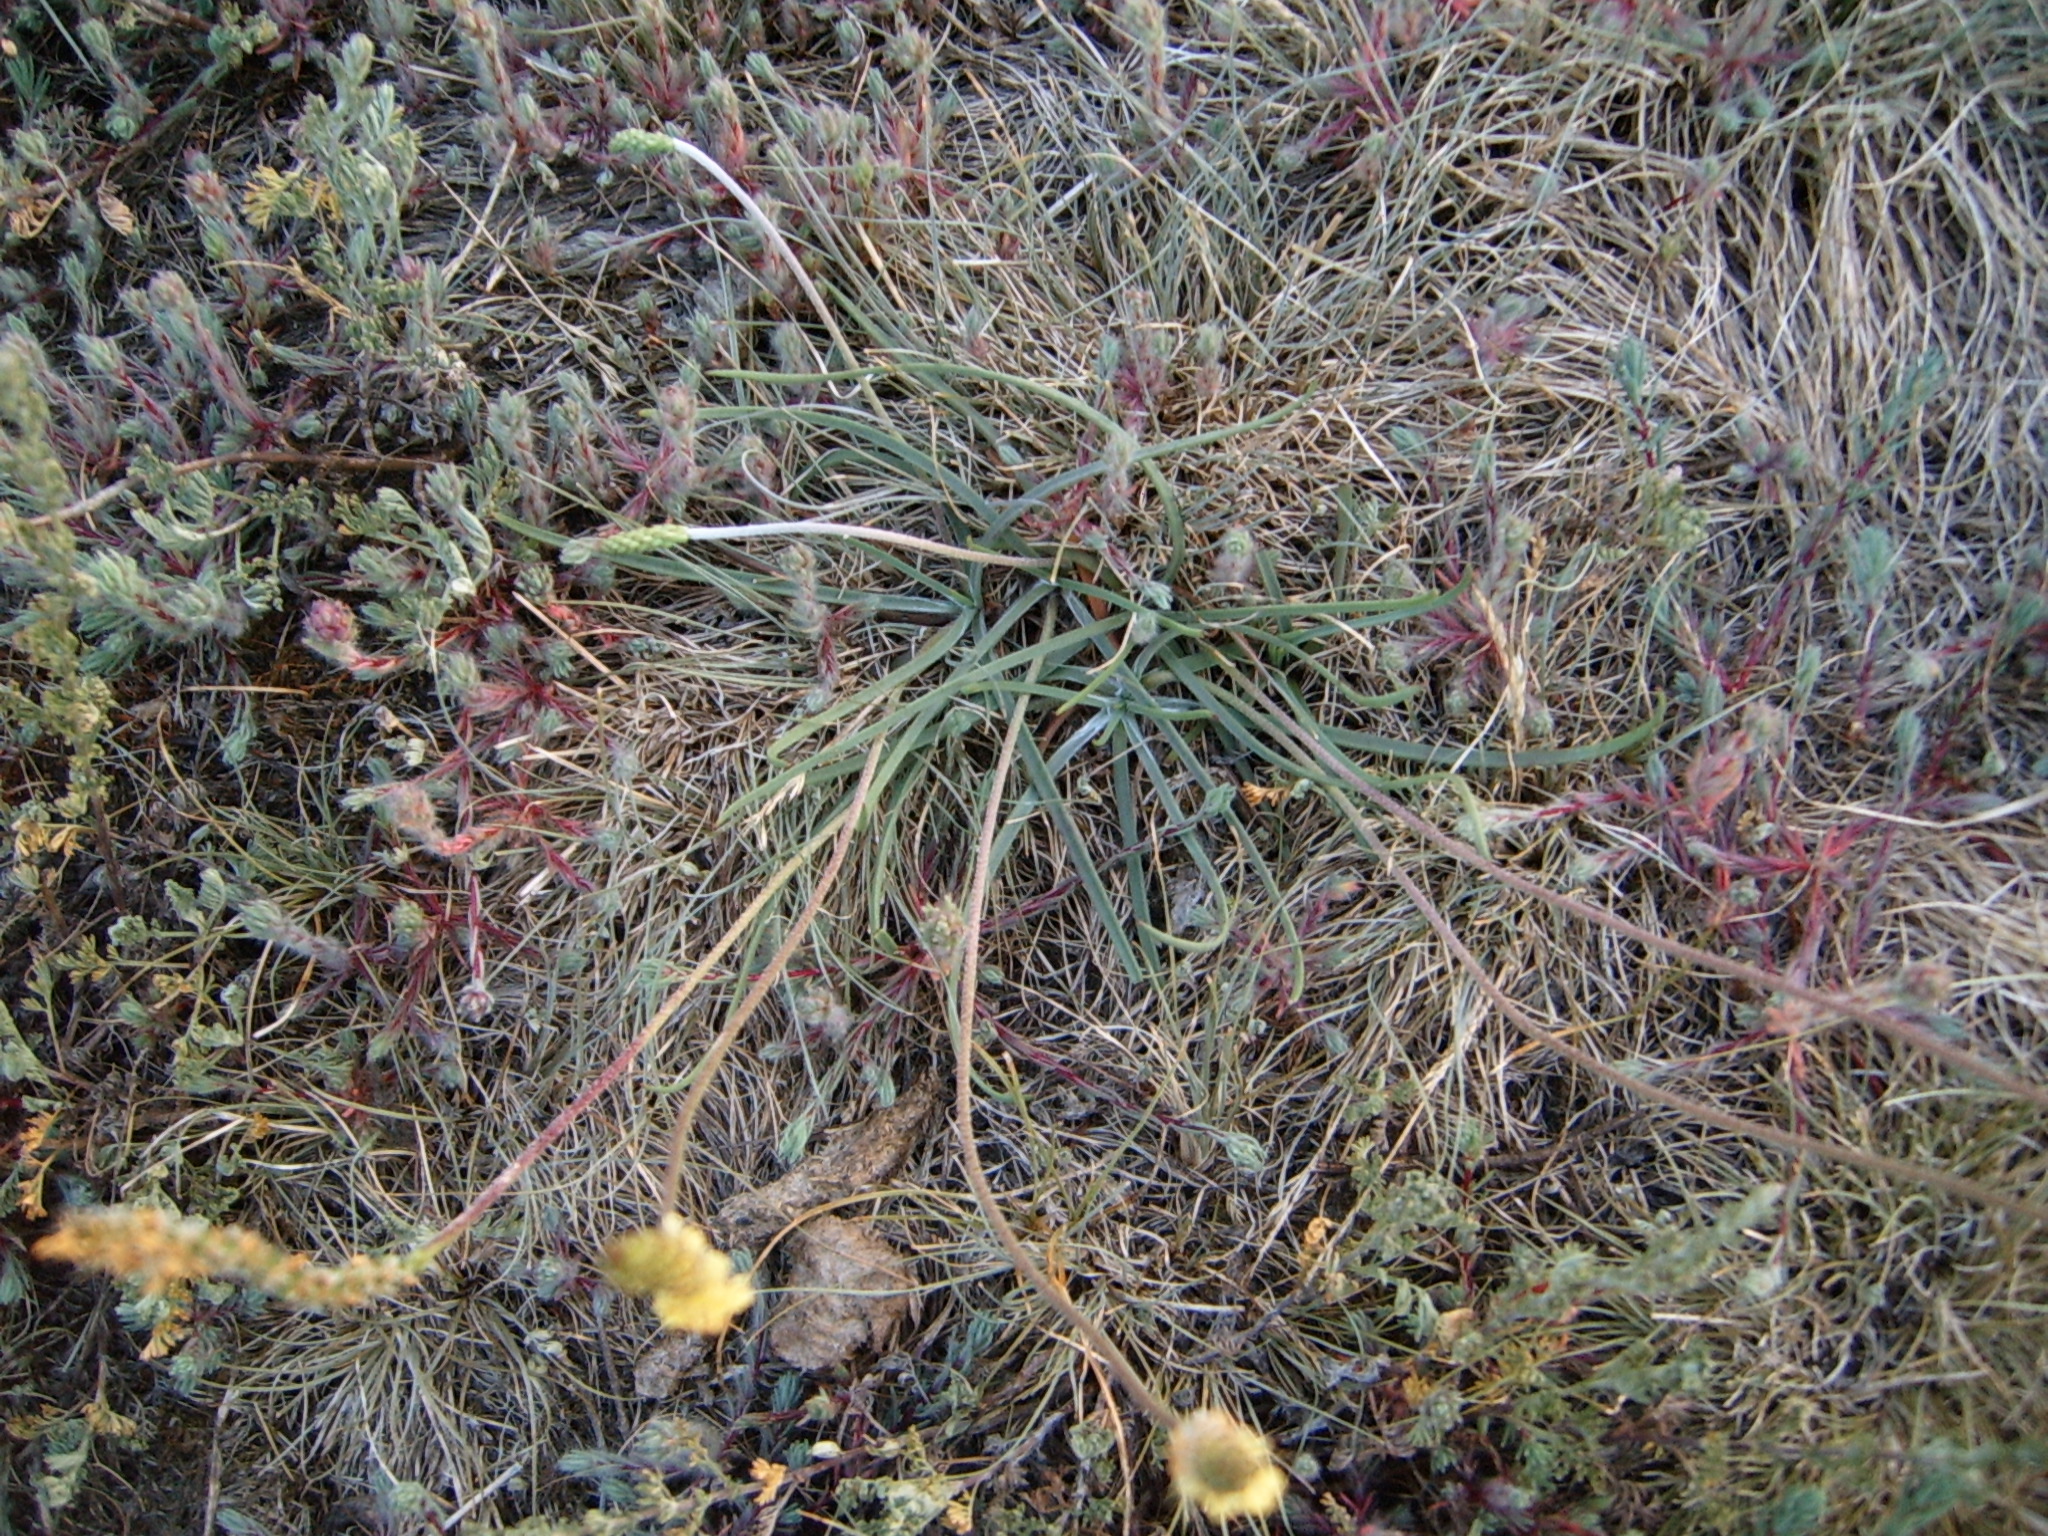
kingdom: Plantae
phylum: Tracheophyta
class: Magnoliopsida
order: Lamiales
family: Plantaginaceae
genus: Plantago
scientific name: Plantago maritima
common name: Sea plantain
